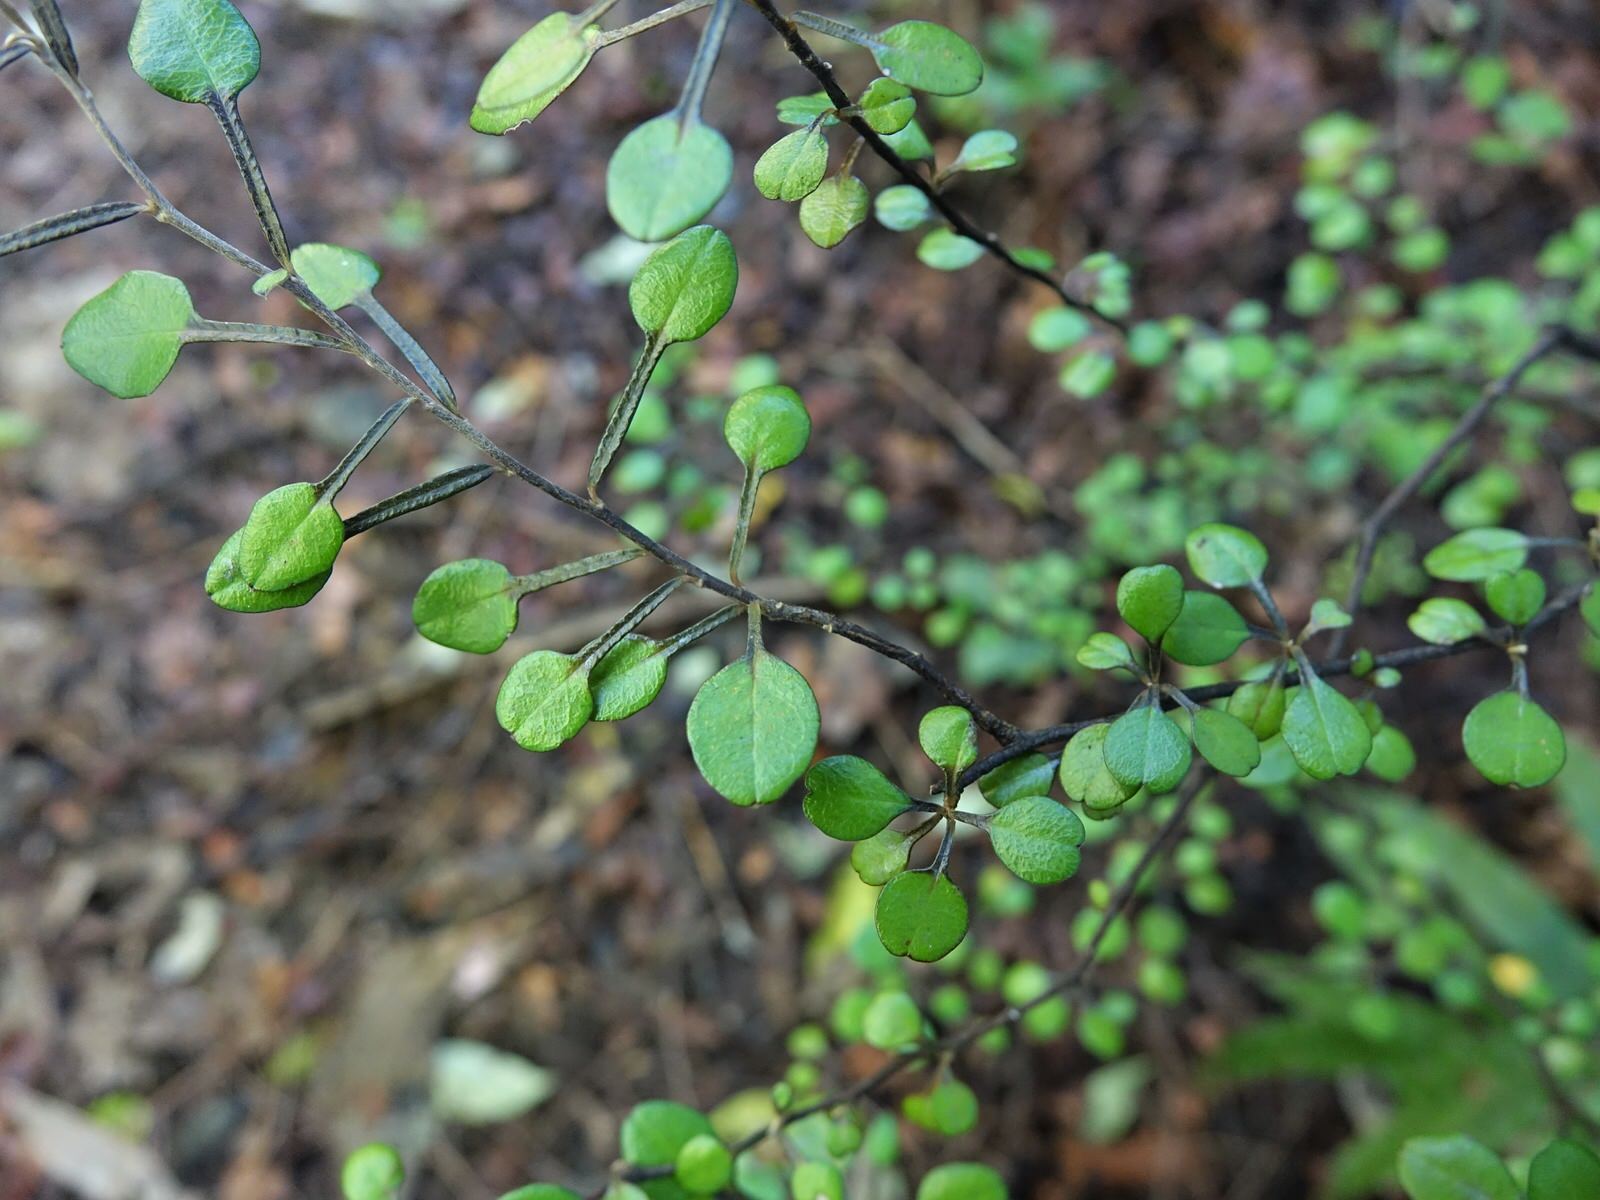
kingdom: Plantae
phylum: Tracheophyta
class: Magnoliopsida
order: Asterales
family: Argophyllaceae
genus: Corokia
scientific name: Corokia cotoneaster
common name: Wire nettingbush
